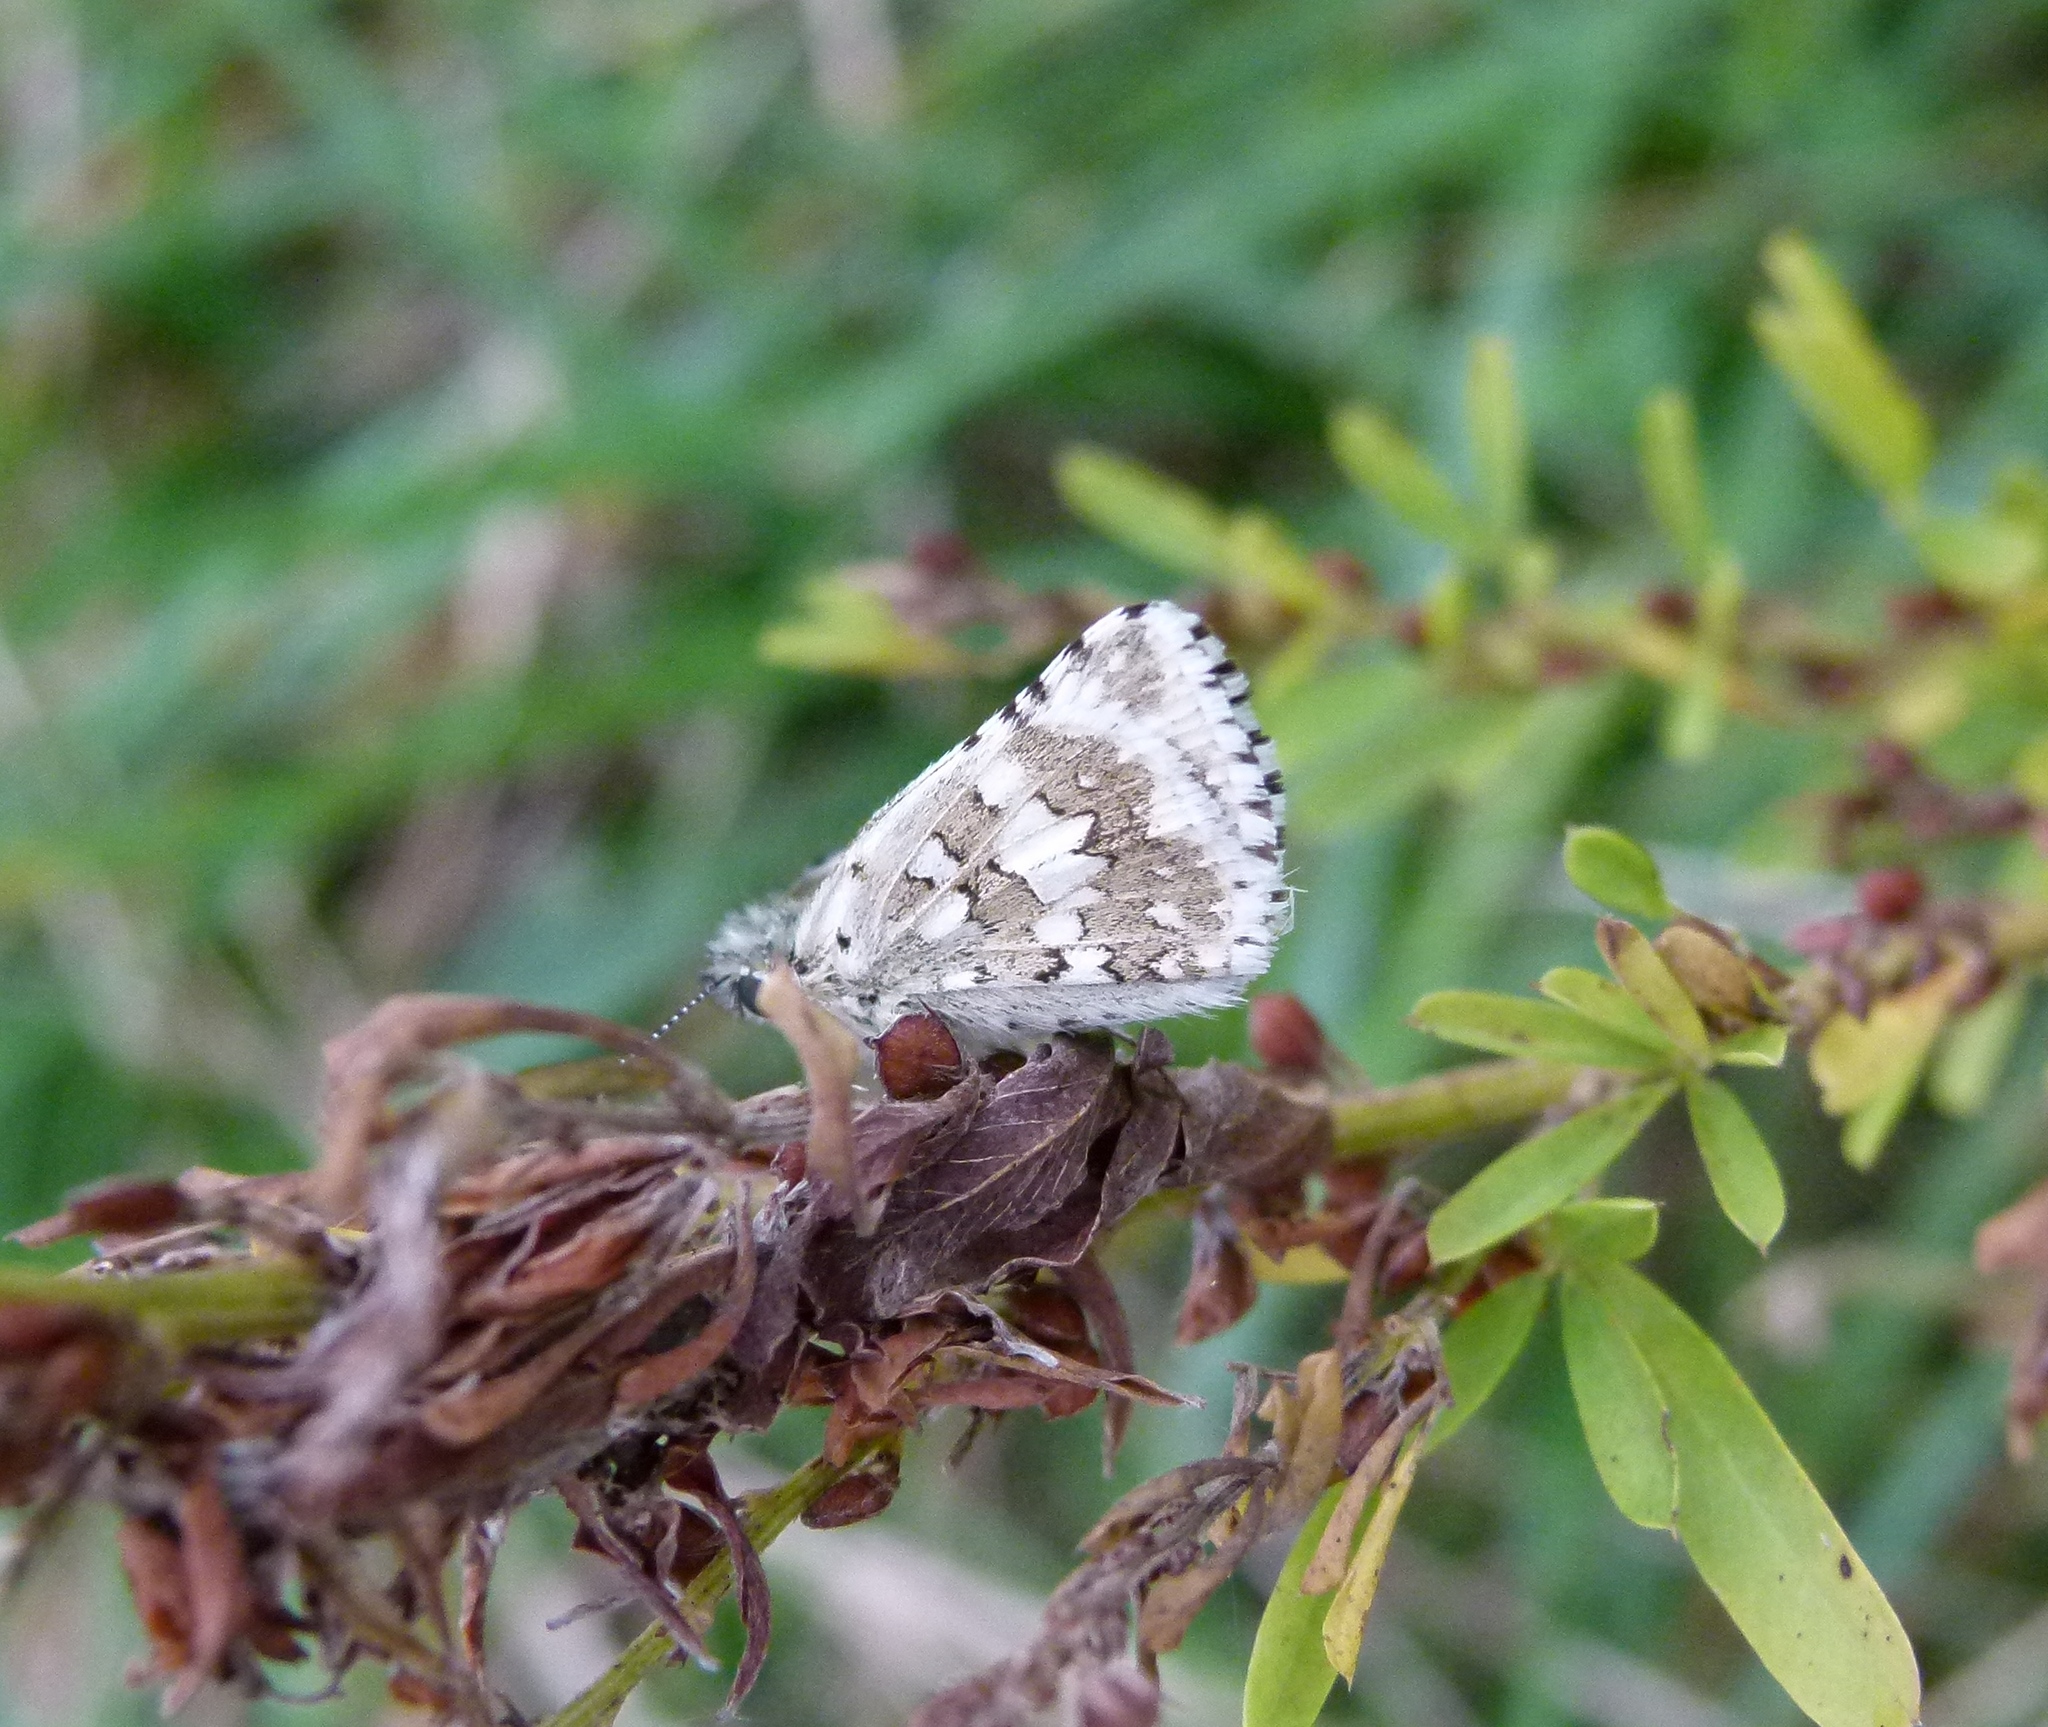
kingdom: Animalia
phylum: Arthropoda
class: Insecta
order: Lepidoptera
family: Hesperiidae
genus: Burnsius
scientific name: Burnsius communis
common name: Common checkered-skipper
